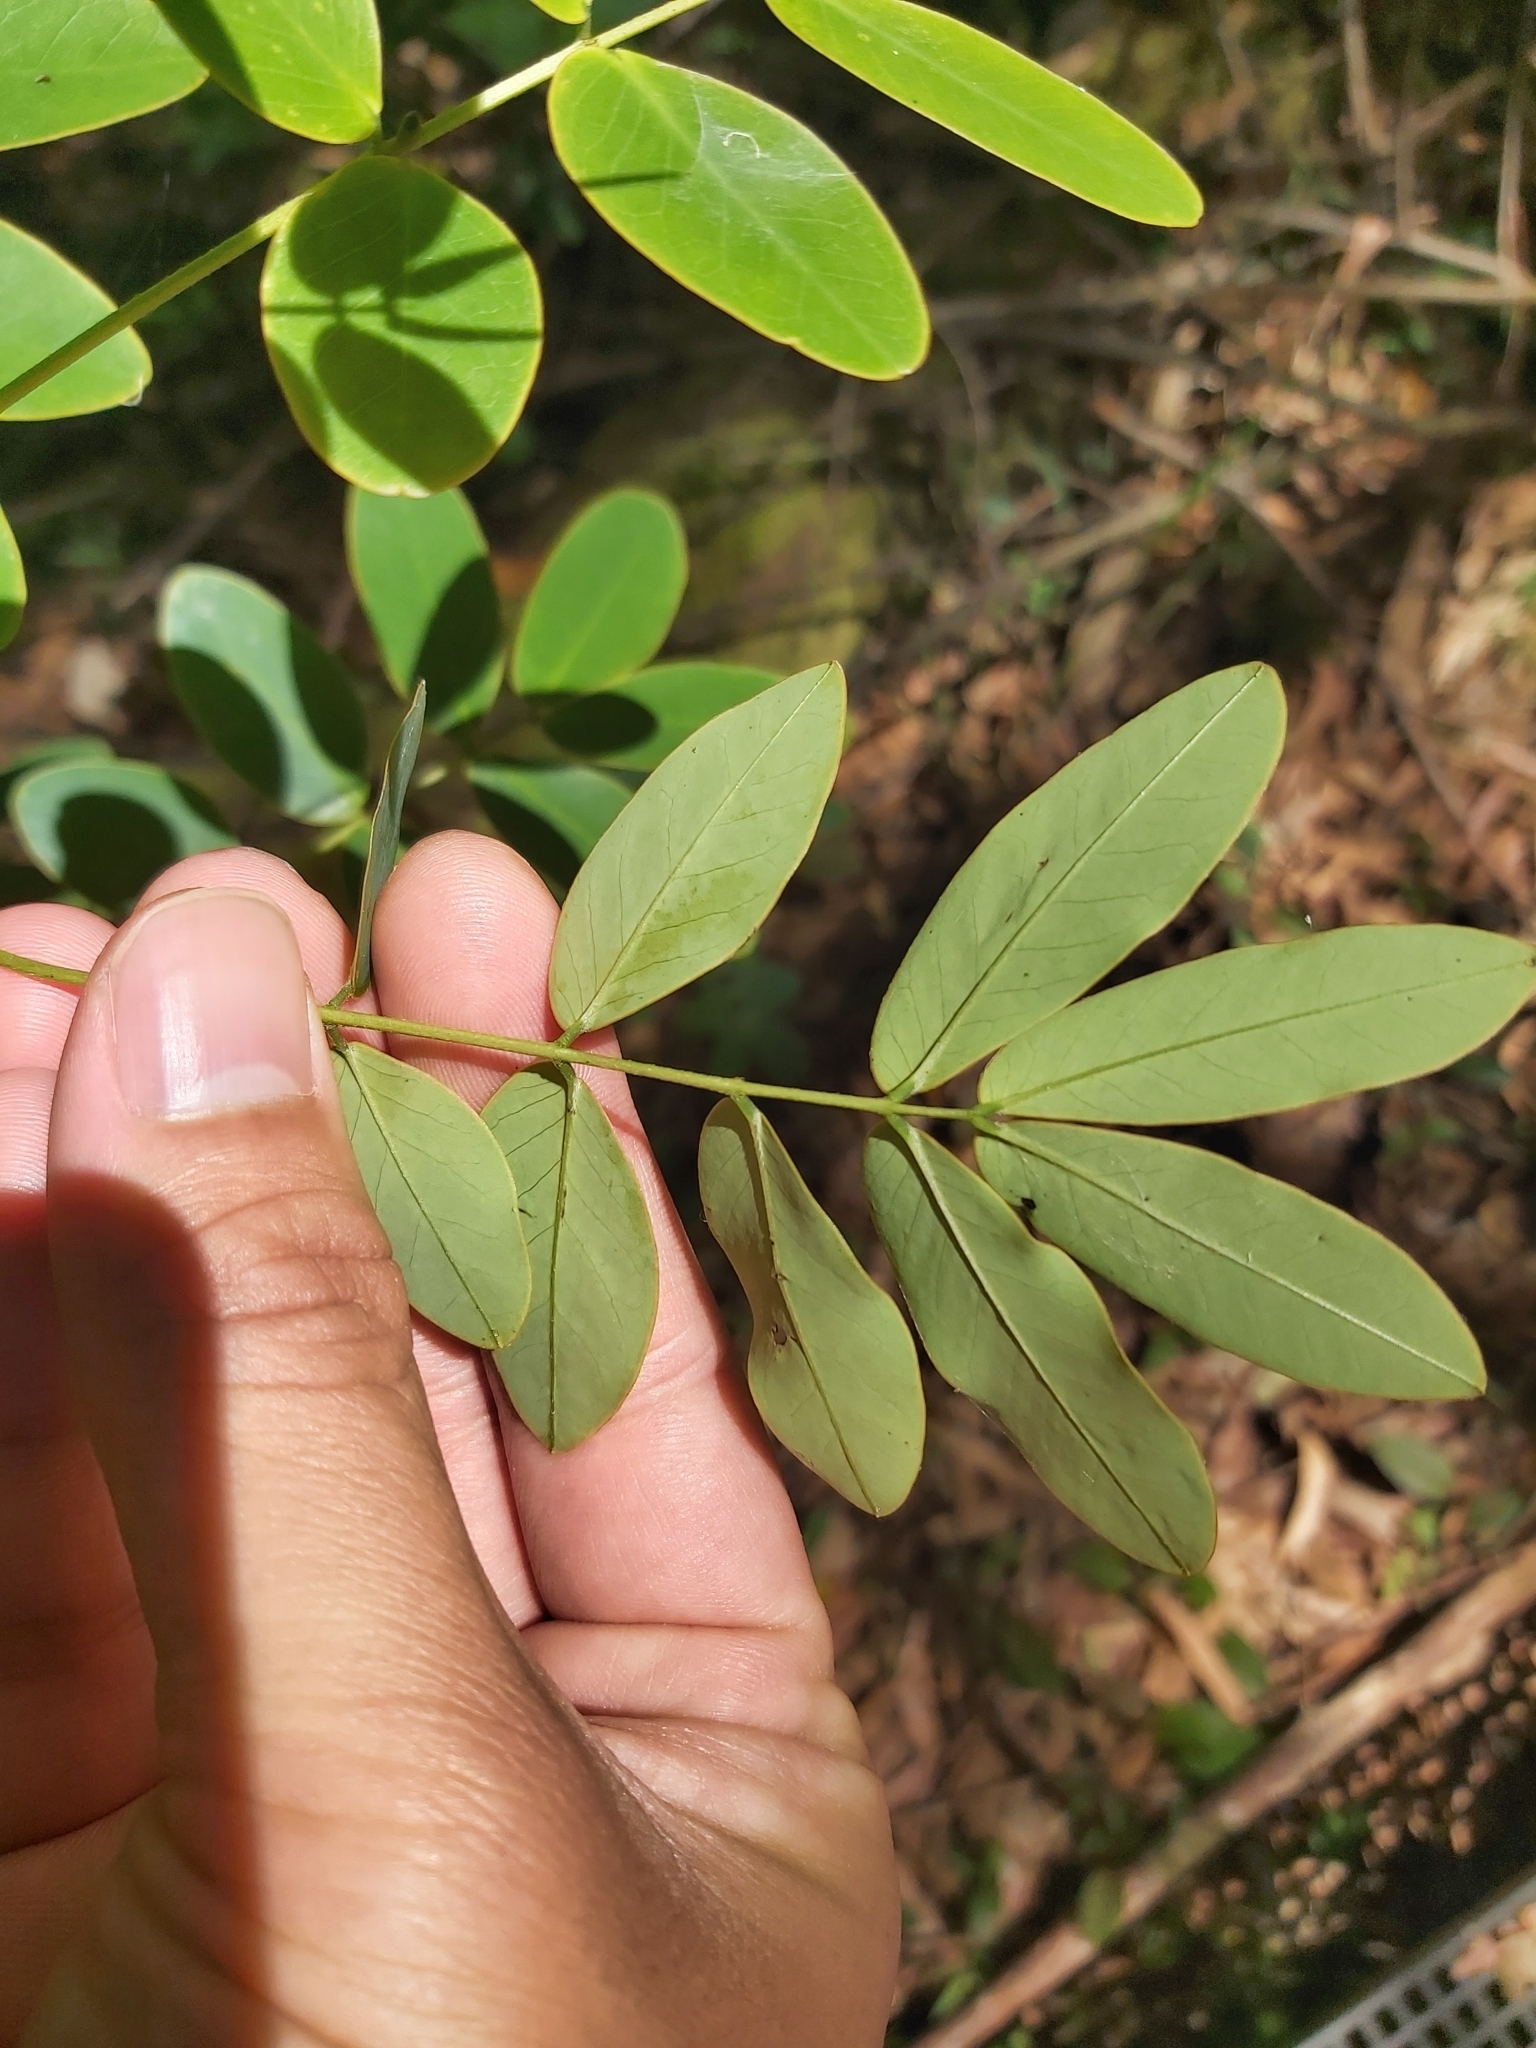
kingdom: Plantae
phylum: Tracheophyta
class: Magnoliopsida
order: Fabales
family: Fabaceae
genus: Senna
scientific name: Senna pendula
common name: Easter cassia
